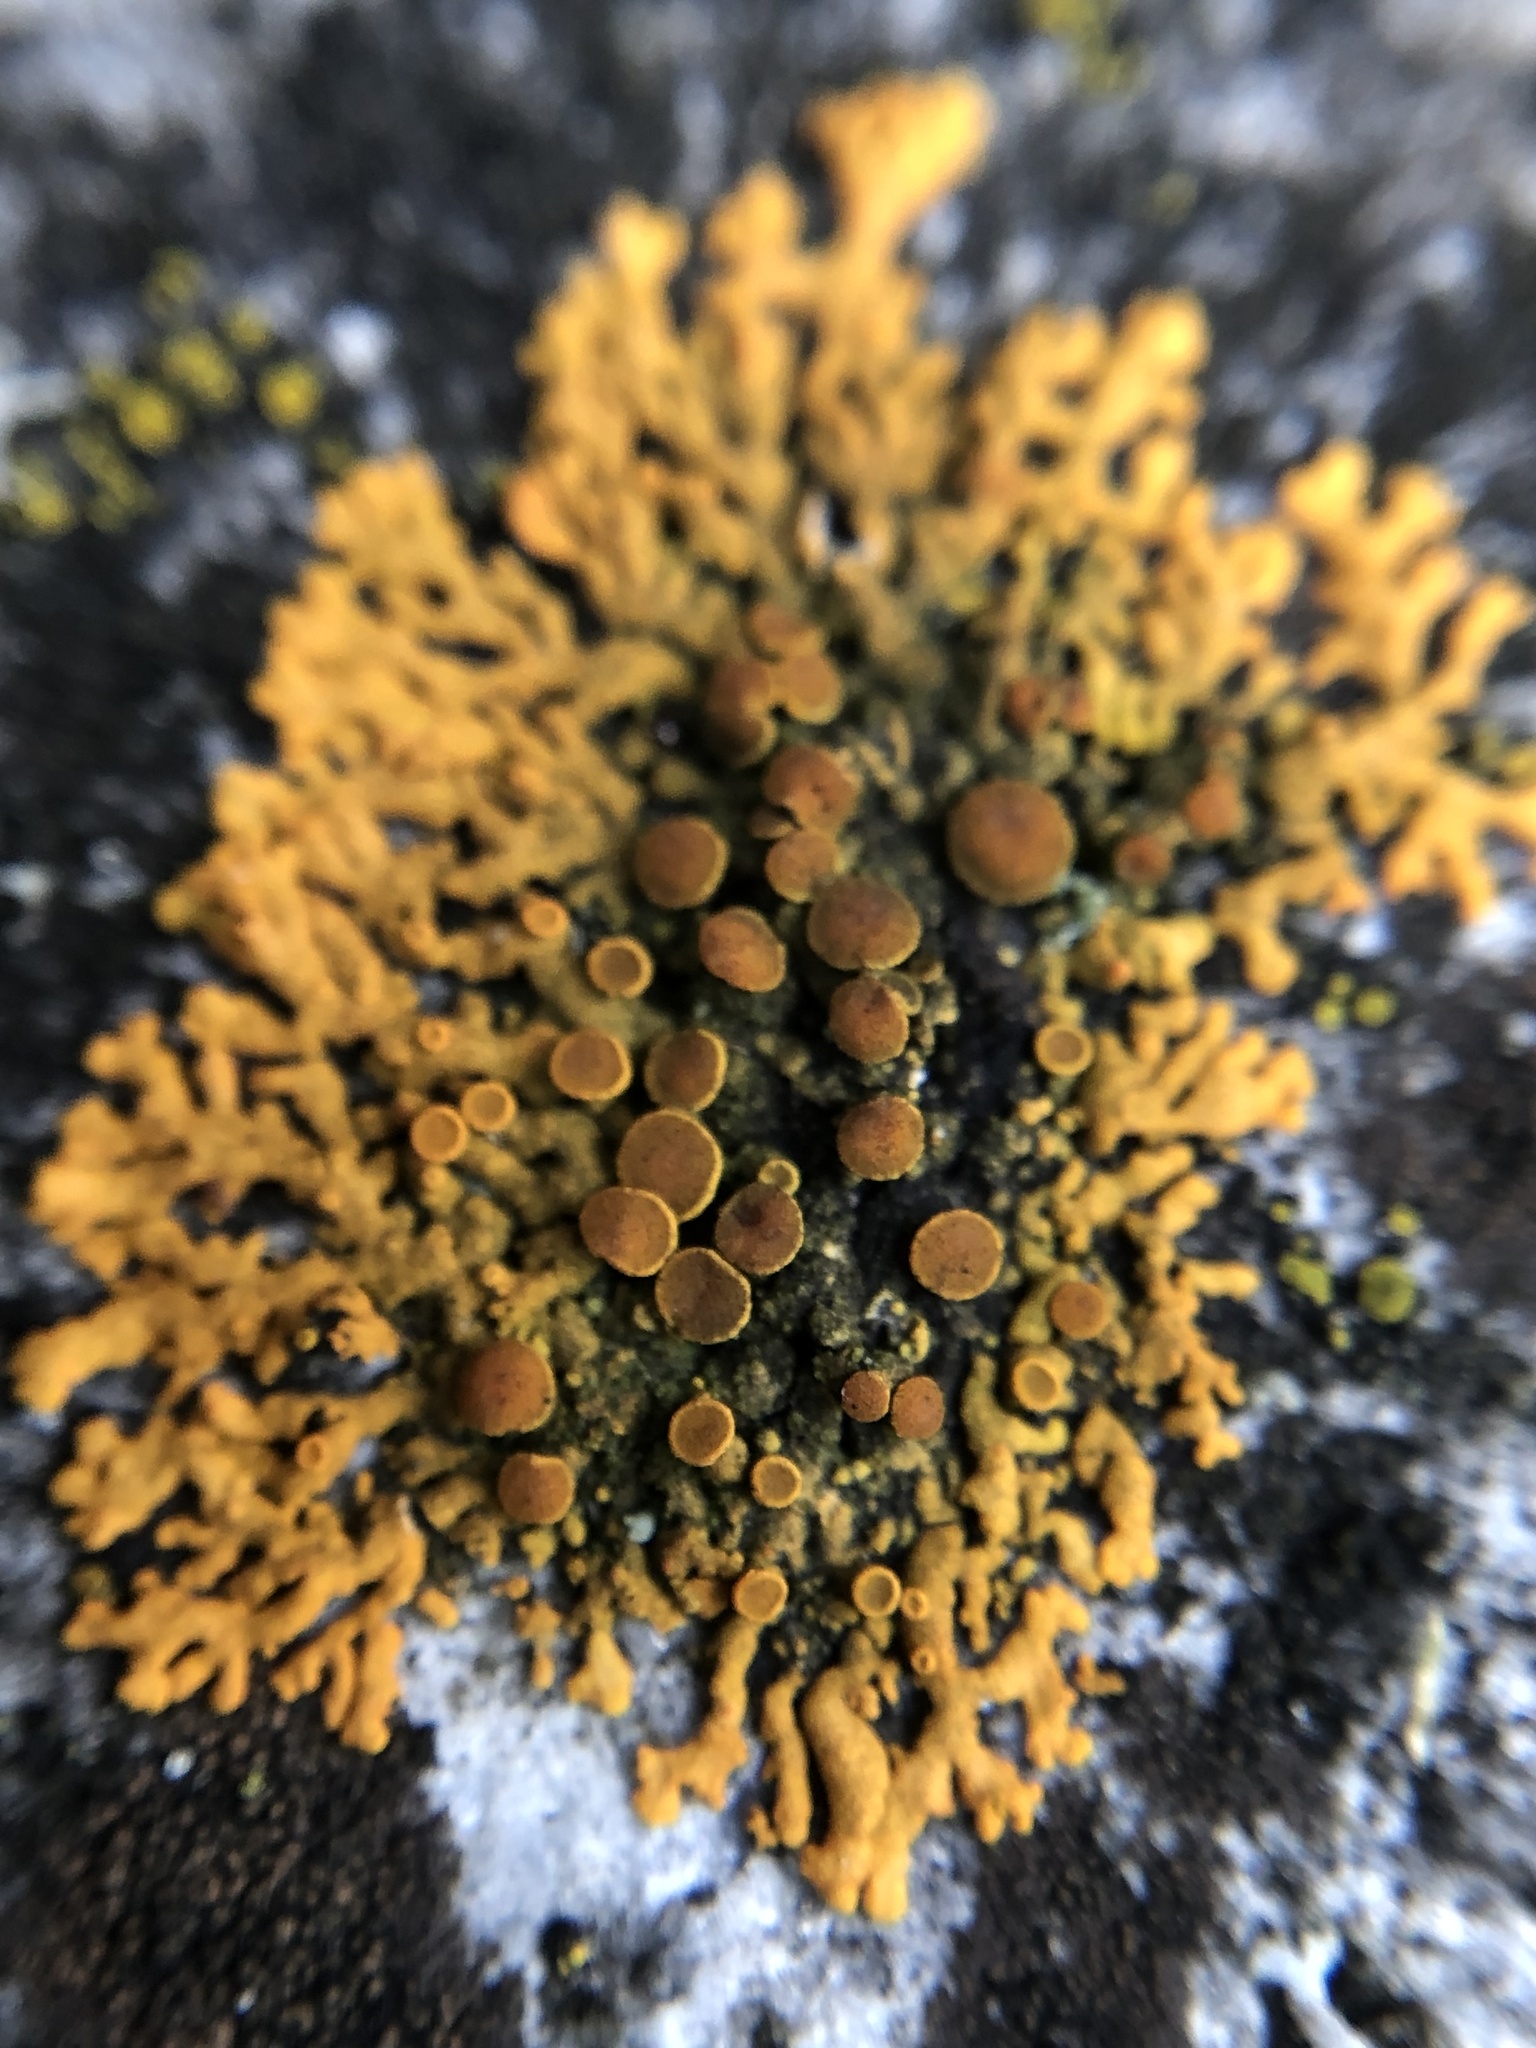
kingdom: Fungi
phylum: Ascomycota
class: Lecanoromycetes
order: Teloschistales
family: Teloschistaceae
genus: Xanthoria
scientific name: Xanthoria elegans
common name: Elegant sunburst lichen
